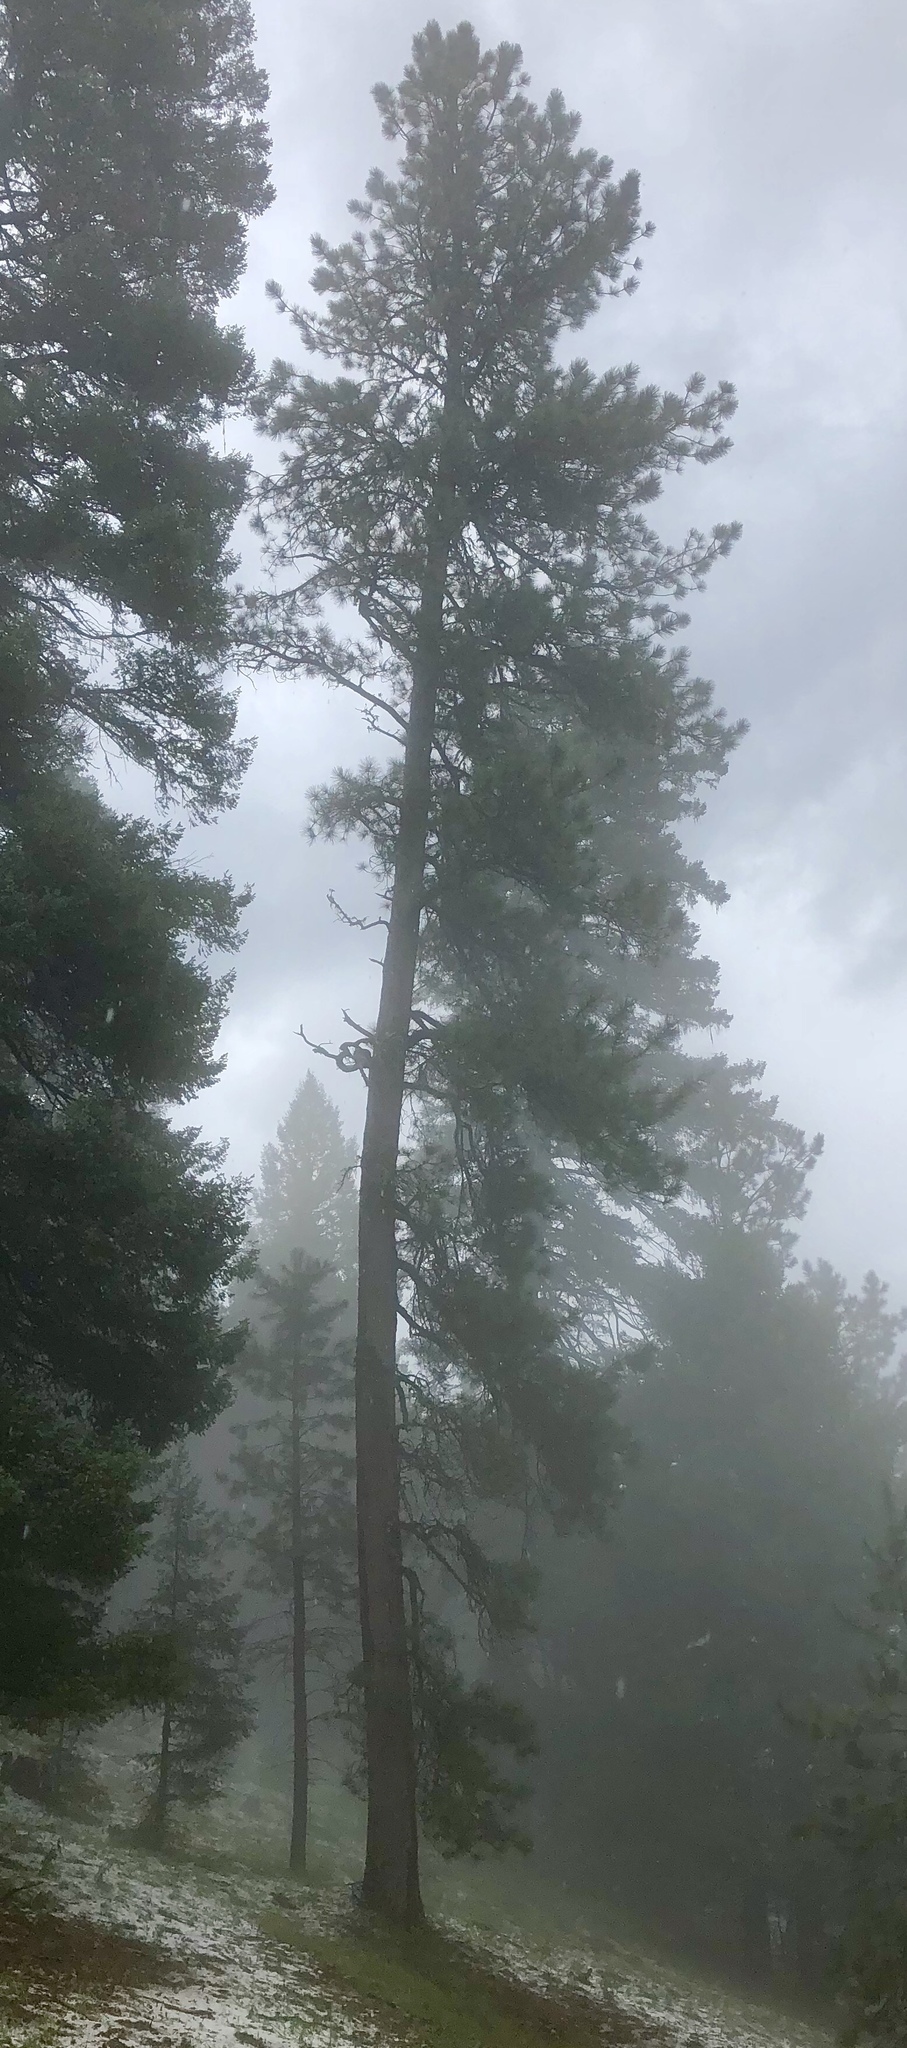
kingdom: Plantae
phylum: Tracheophyta
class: Pinopsida
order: Pinales
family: Pinaceae
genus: Pinus
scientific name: Pinus ponderosa
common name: Western yellow-pine
